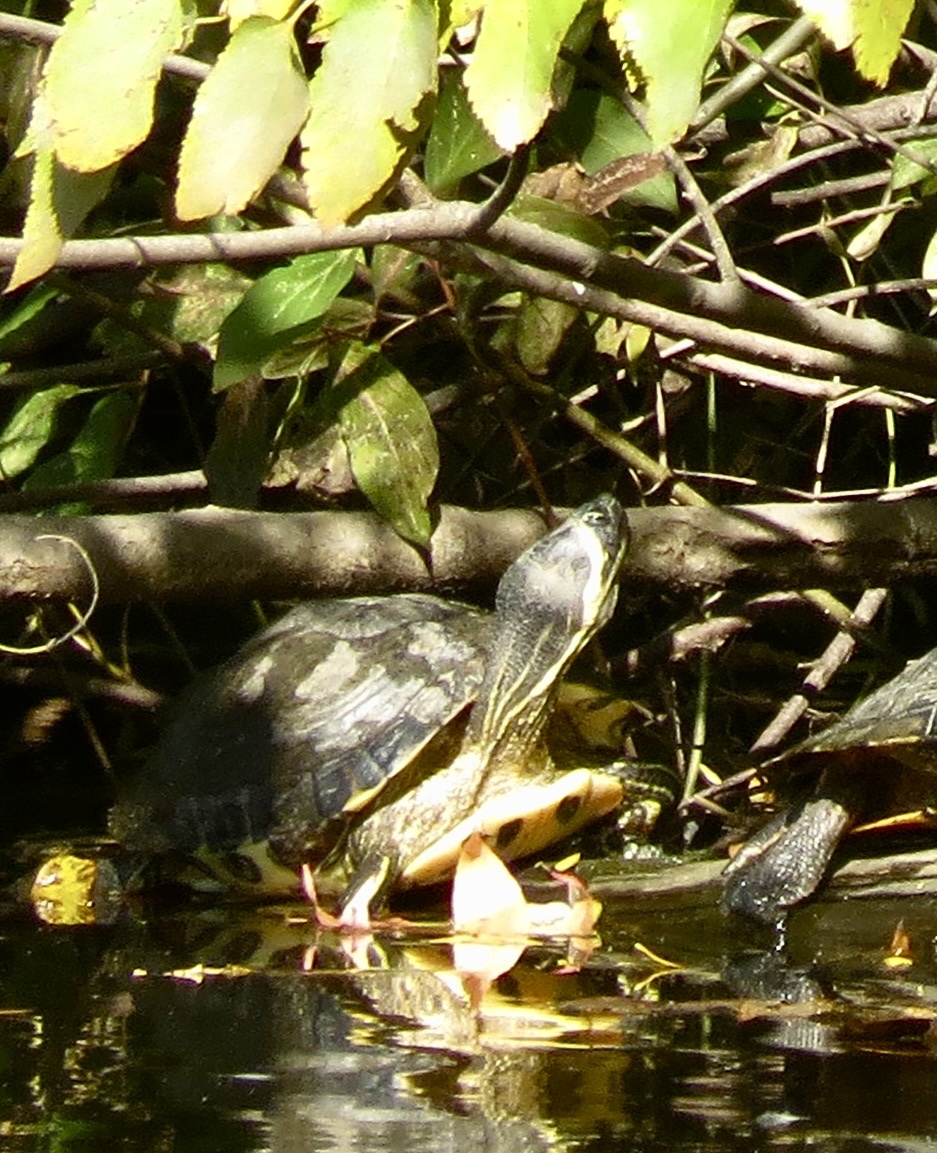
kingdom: Animalia
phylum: Chordata
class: Testudines
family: Emydidae
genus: Trachemys
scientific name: Trachemys scripta
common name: Slider
